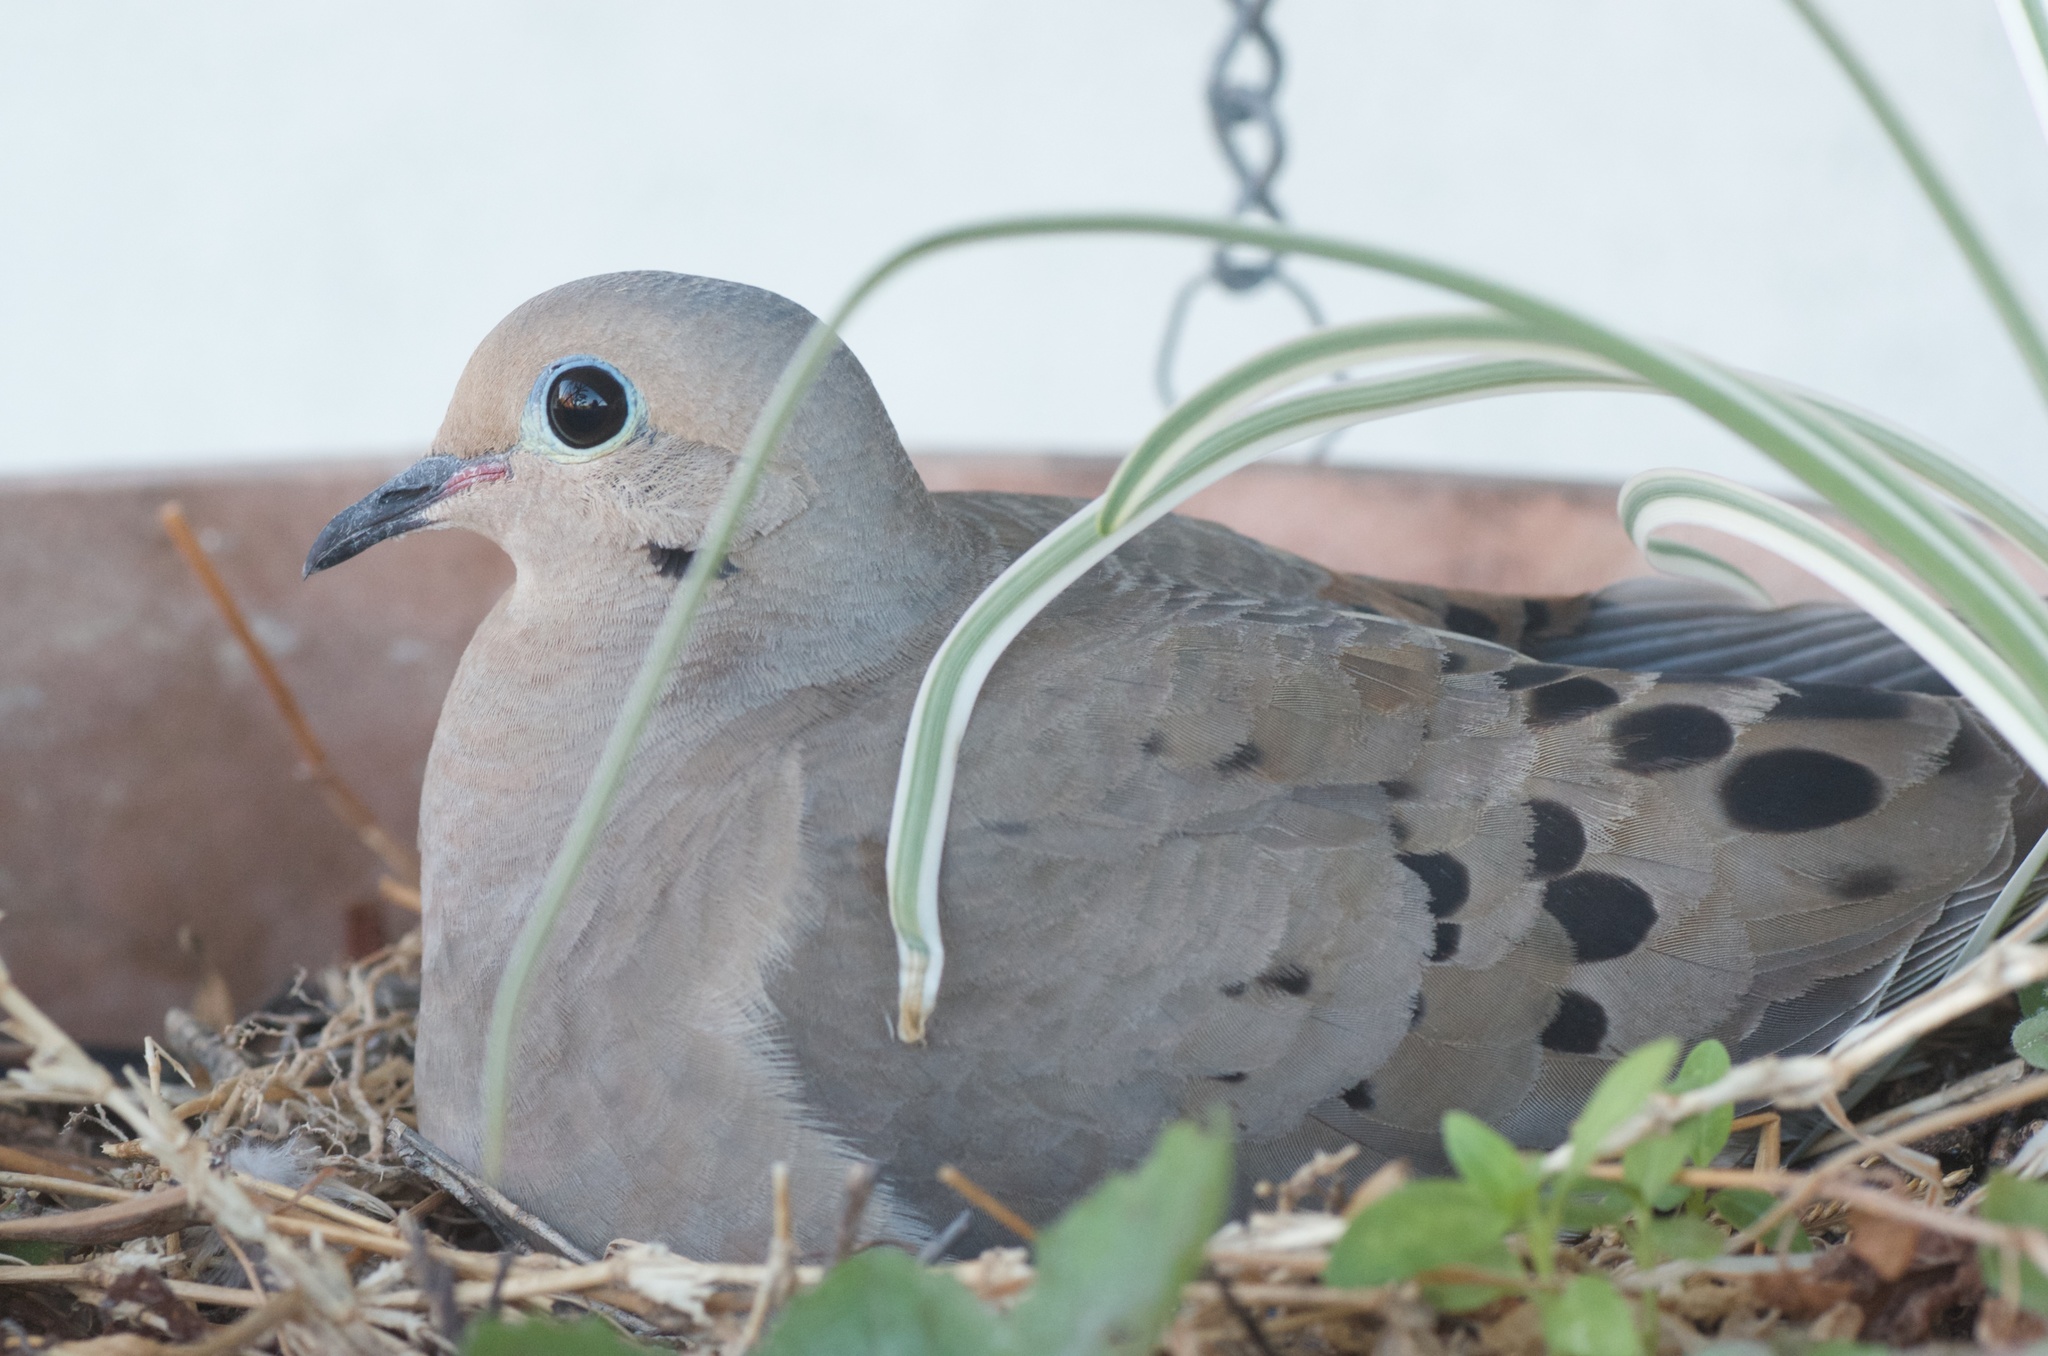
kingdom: Animalia
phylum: Chordata
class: Aves
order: Columbiformes
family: Columbidae
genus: Zenaida
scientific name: Zenaida macroura
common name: Mourning dove
